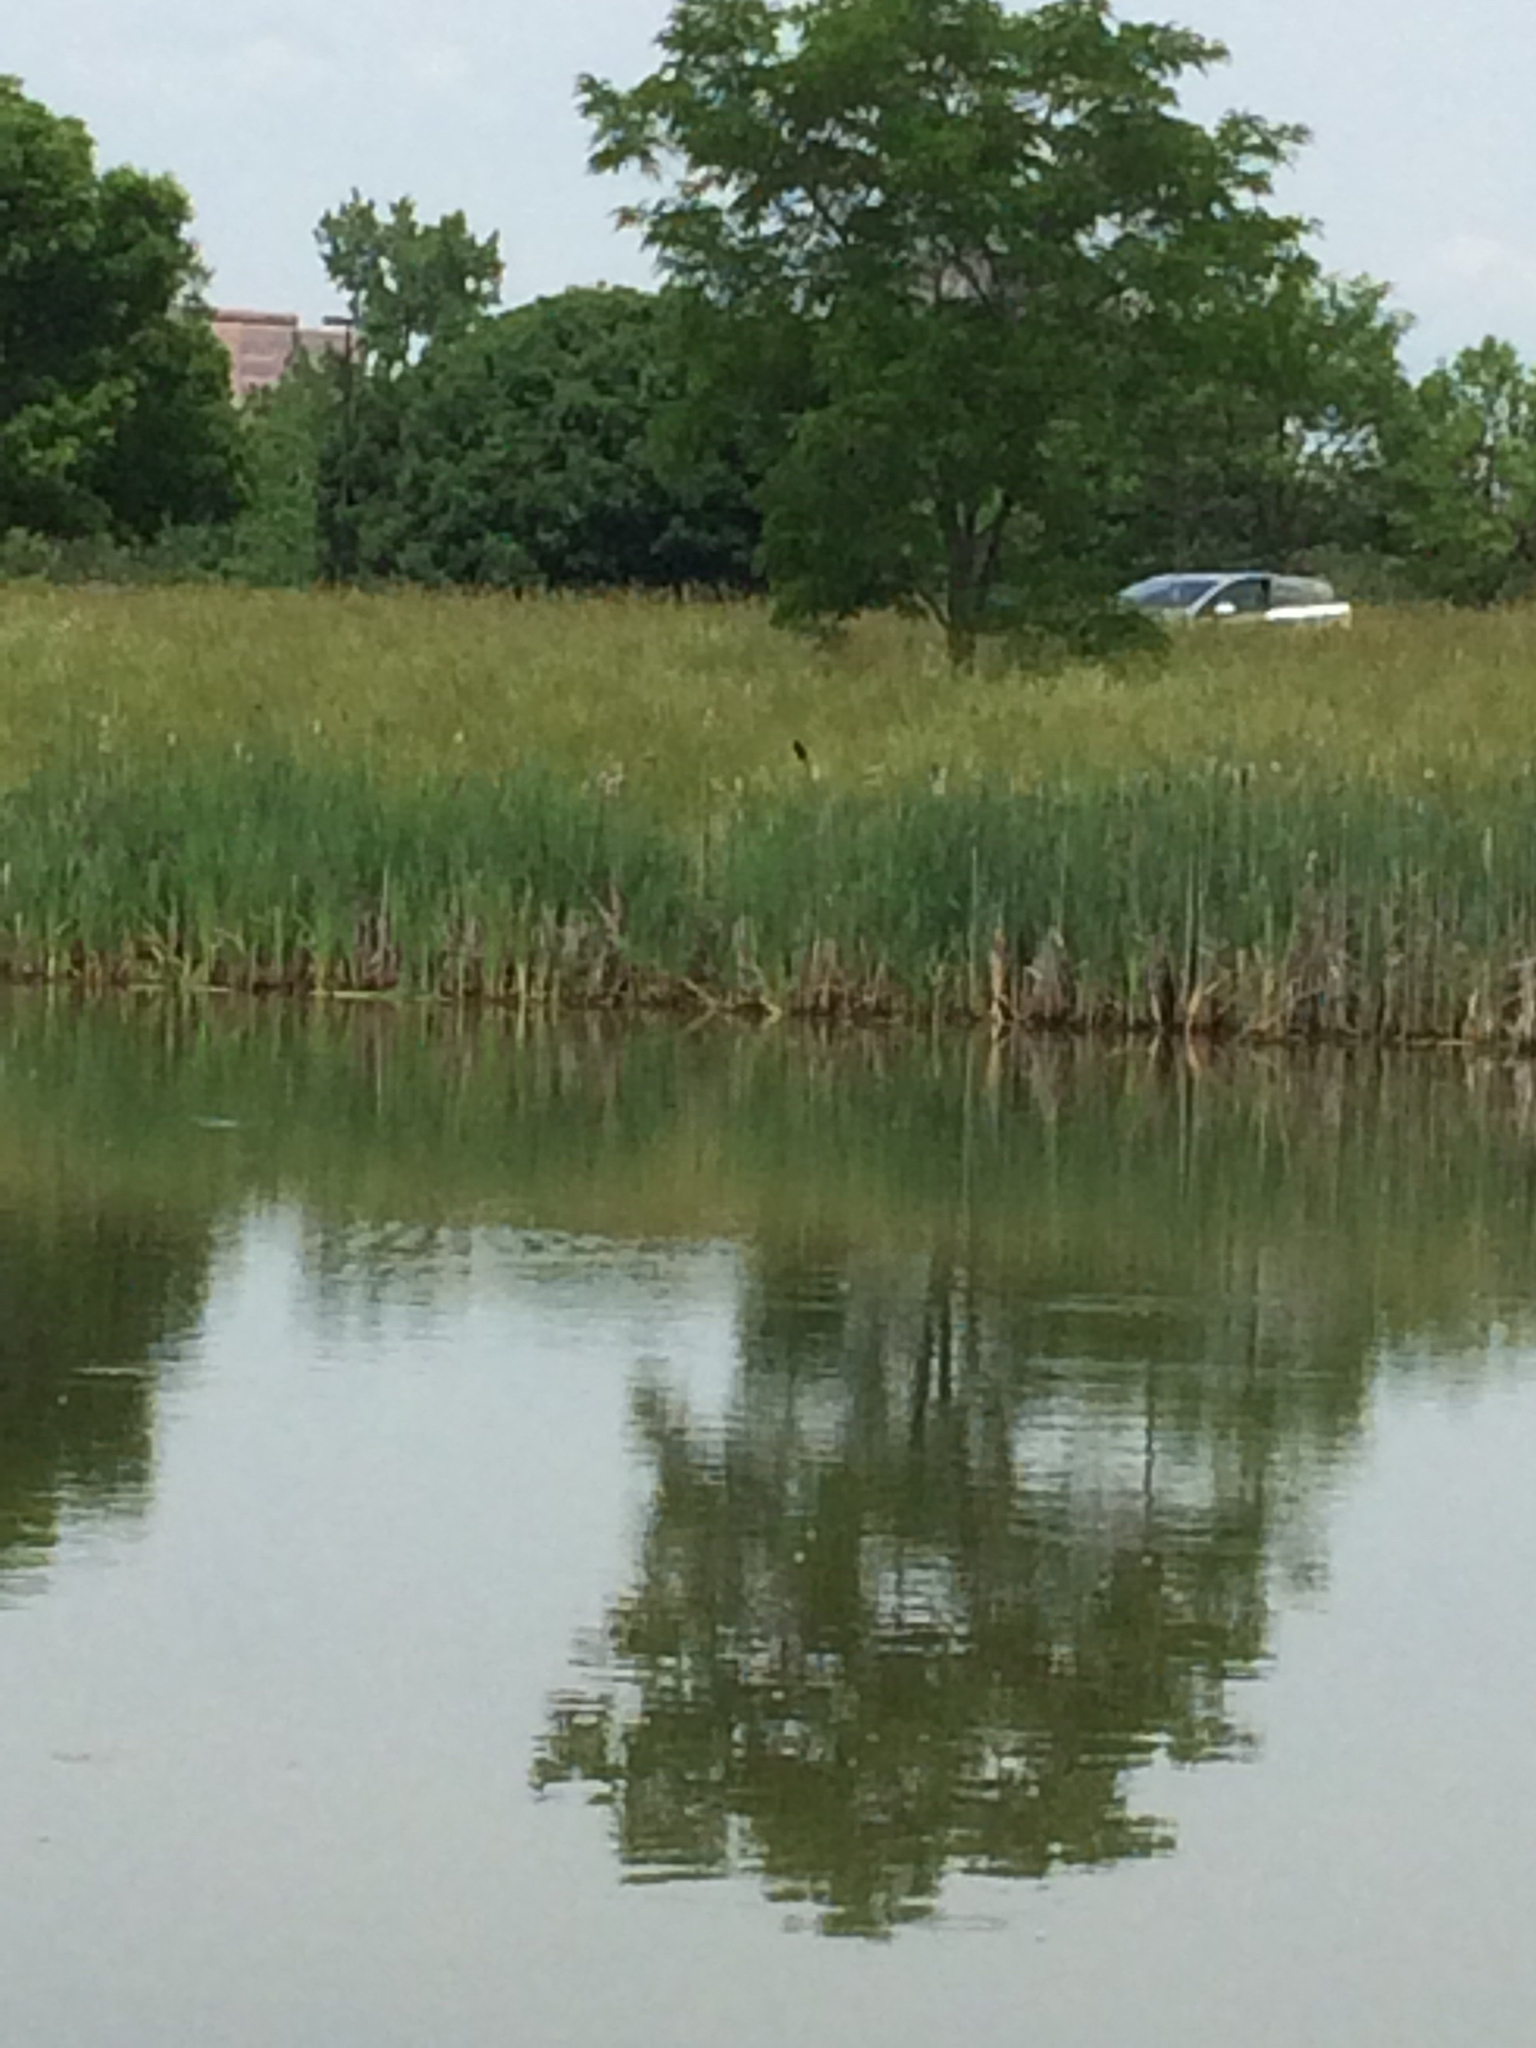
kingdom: Animalia
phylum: Chordata
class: Aves
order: Passeriformes
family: Icteridae
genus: Agelaius
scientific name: Agelaius phoeniceus
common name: Red-winged blackbird
